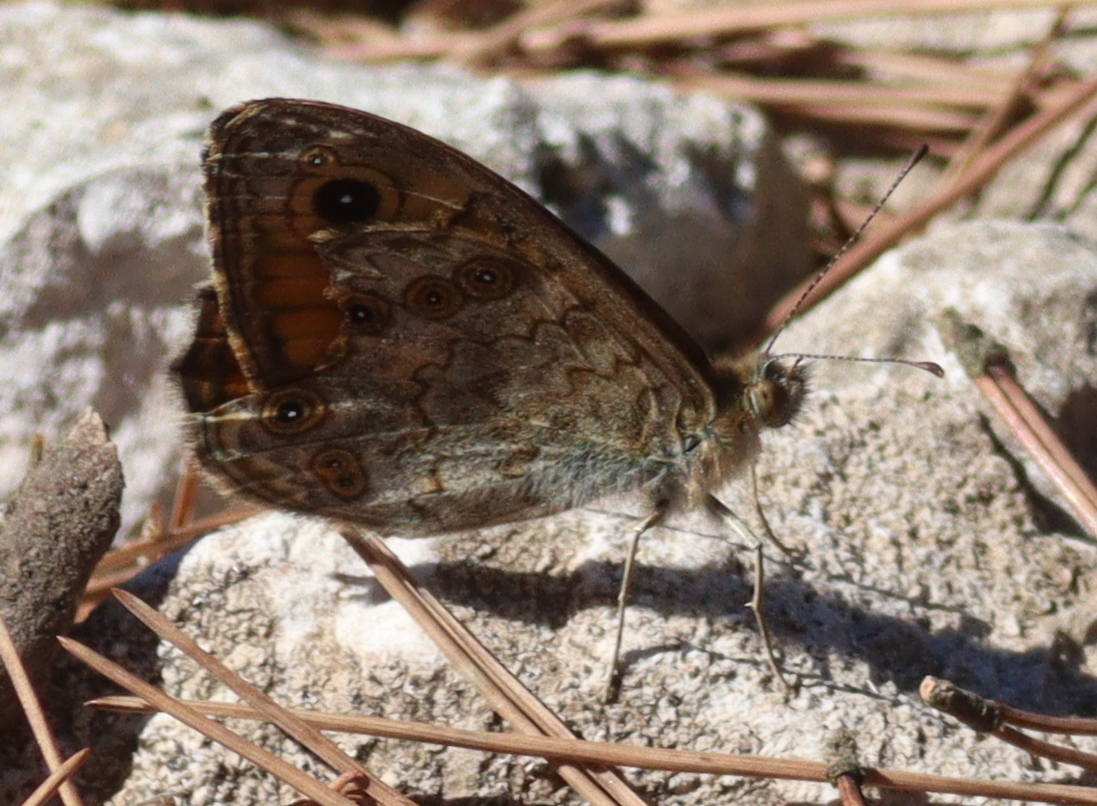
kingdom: Animalia
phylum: Arthropoda
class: Insecta
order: Lepidoptera
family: Nymphalidae
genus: Pararge
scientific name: Pararge Lasiommata megera
